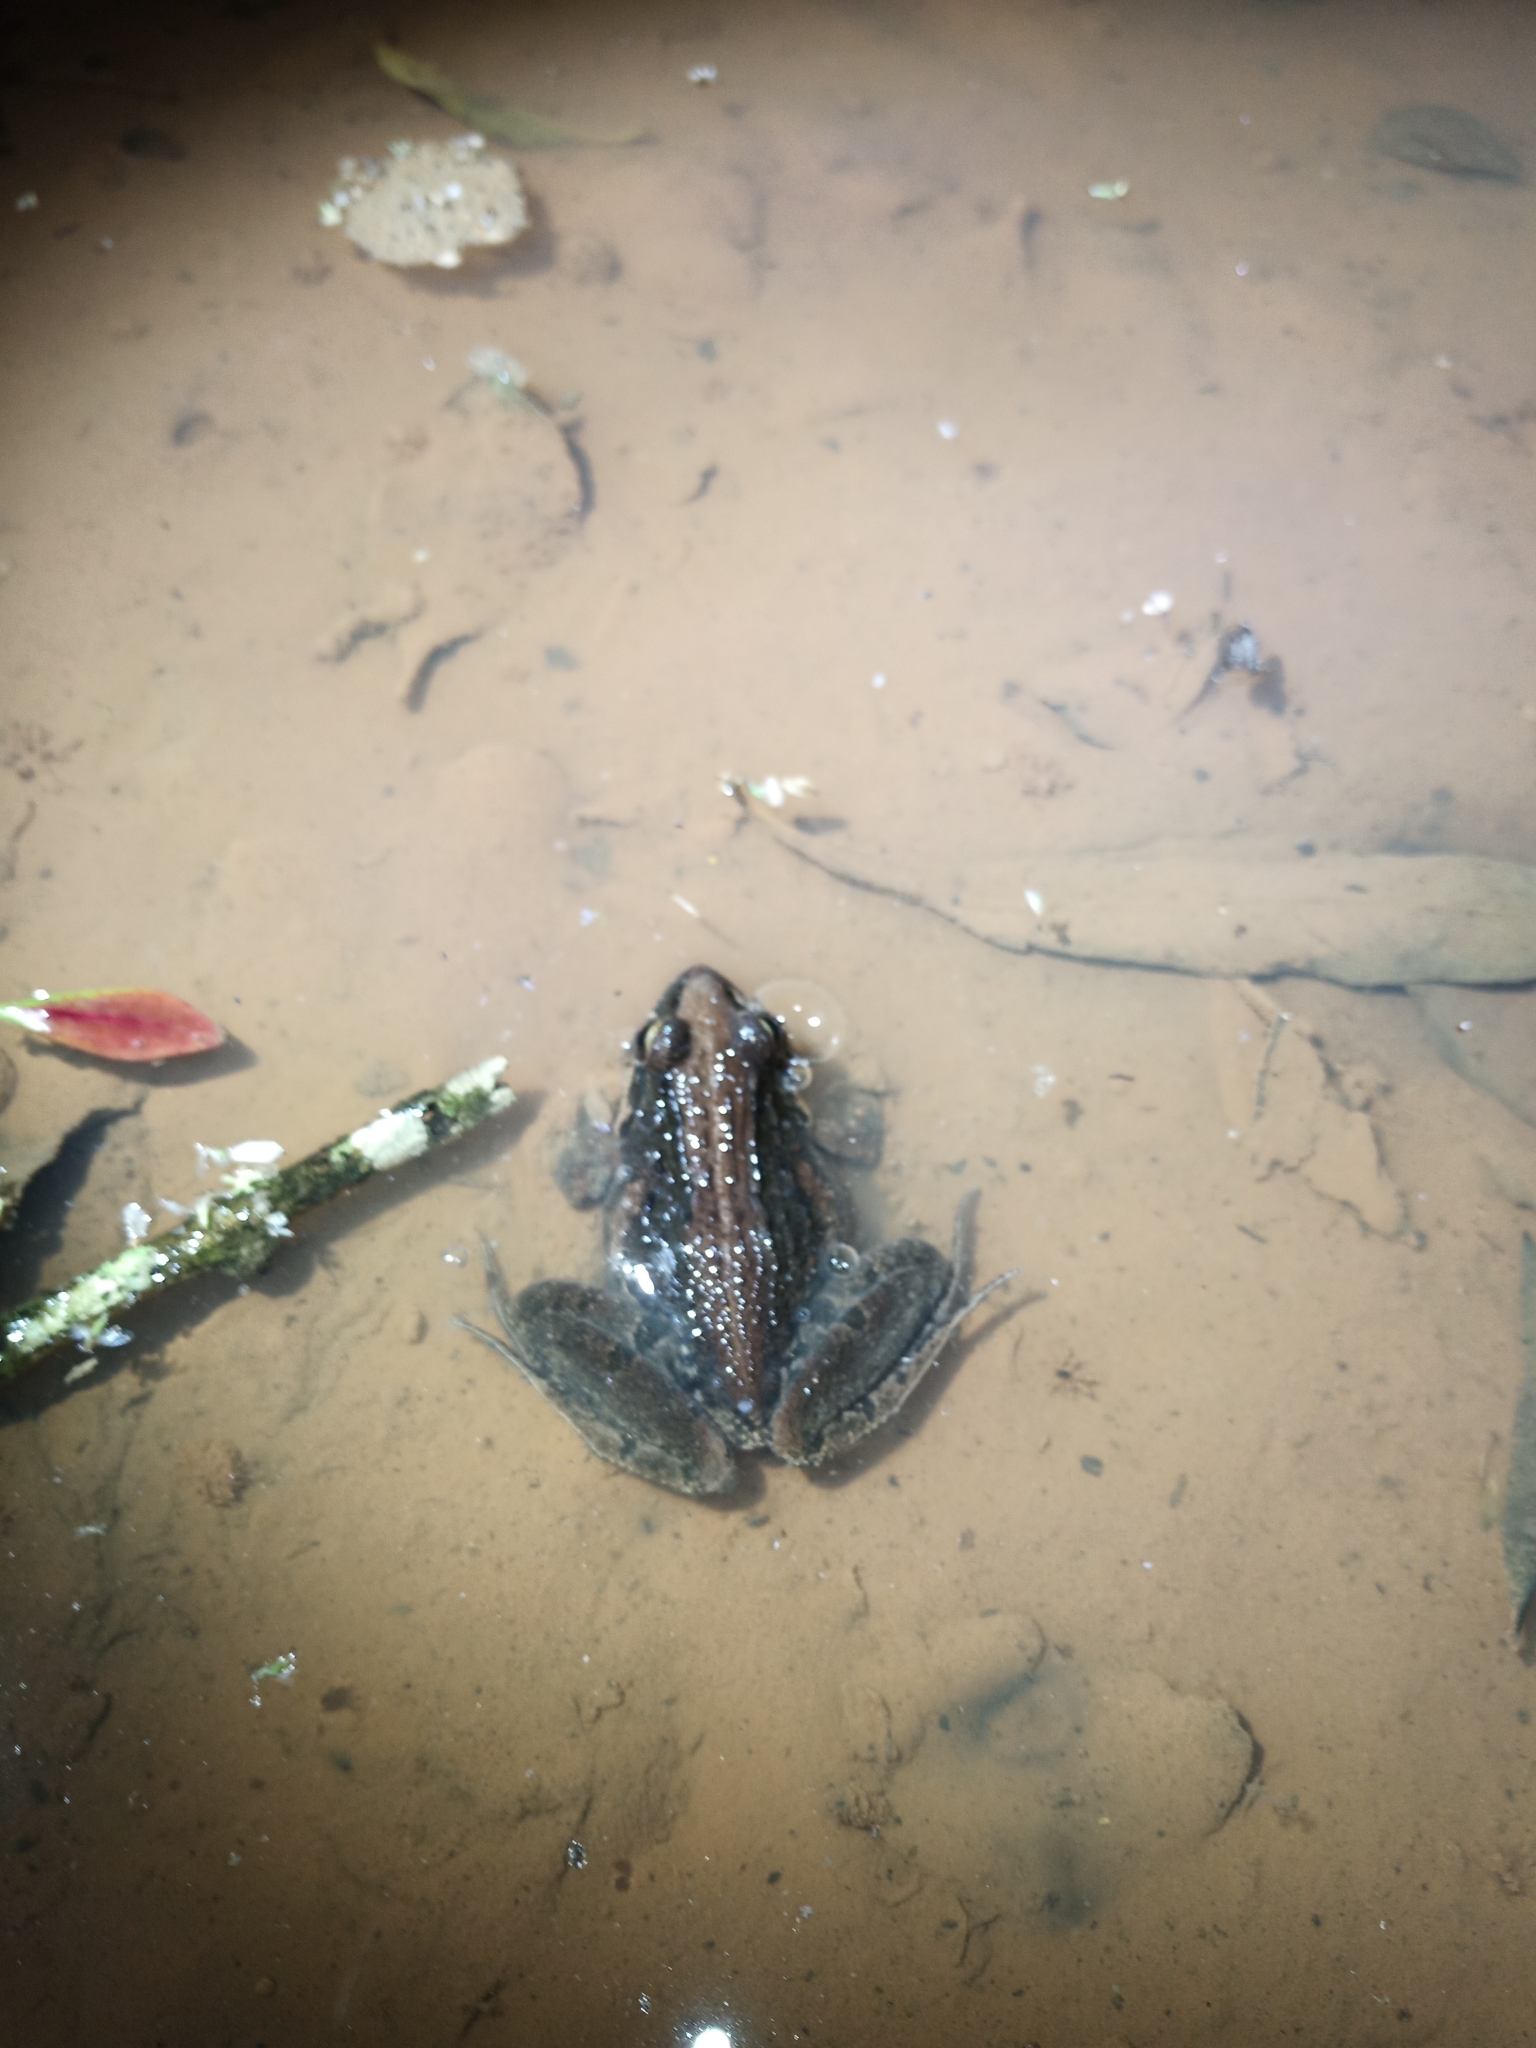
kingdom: Animalia
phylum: Chordata
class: Amphibia
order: Anura
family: Pyxicephalidae
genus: Strongylopus
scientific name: Strongylopus grayii
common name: Gray's stream frog
